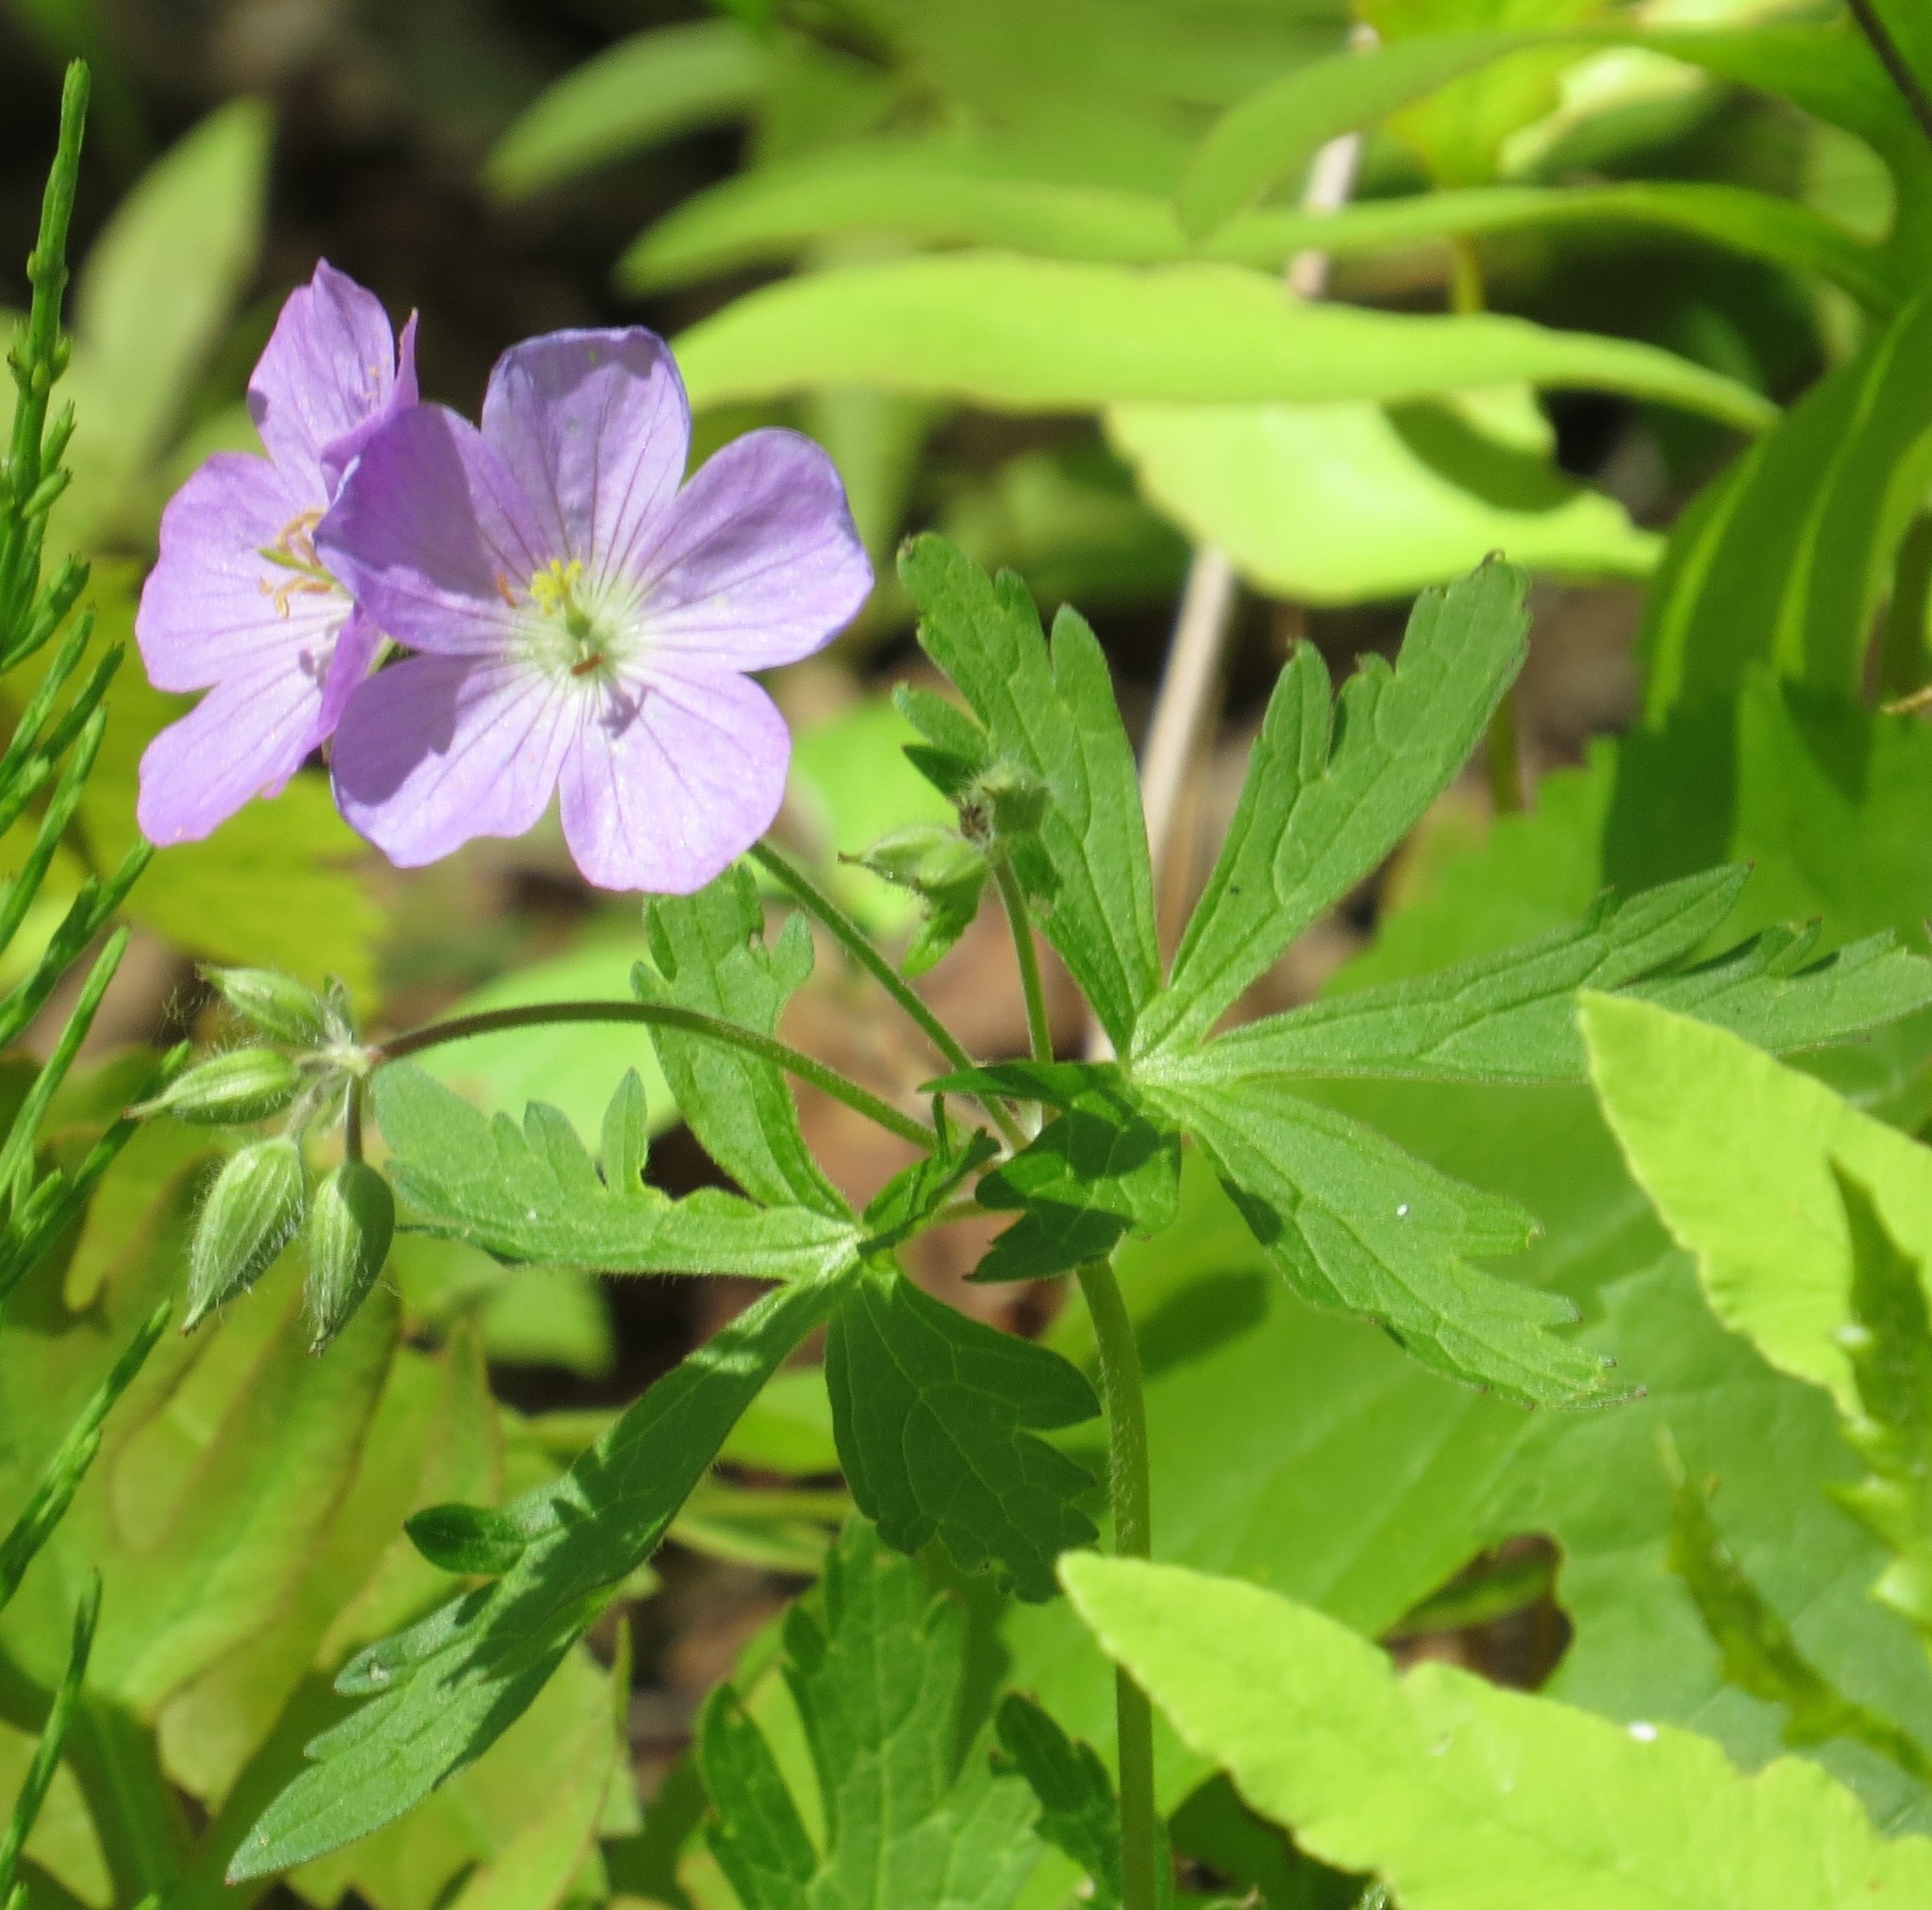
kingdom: Plantae
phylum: Tracheophyta
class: Magnoliopsida
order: Geraniales
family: Geraniaceae
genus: Geranium
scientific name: Geranium maculatum
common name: Spotted geranium
